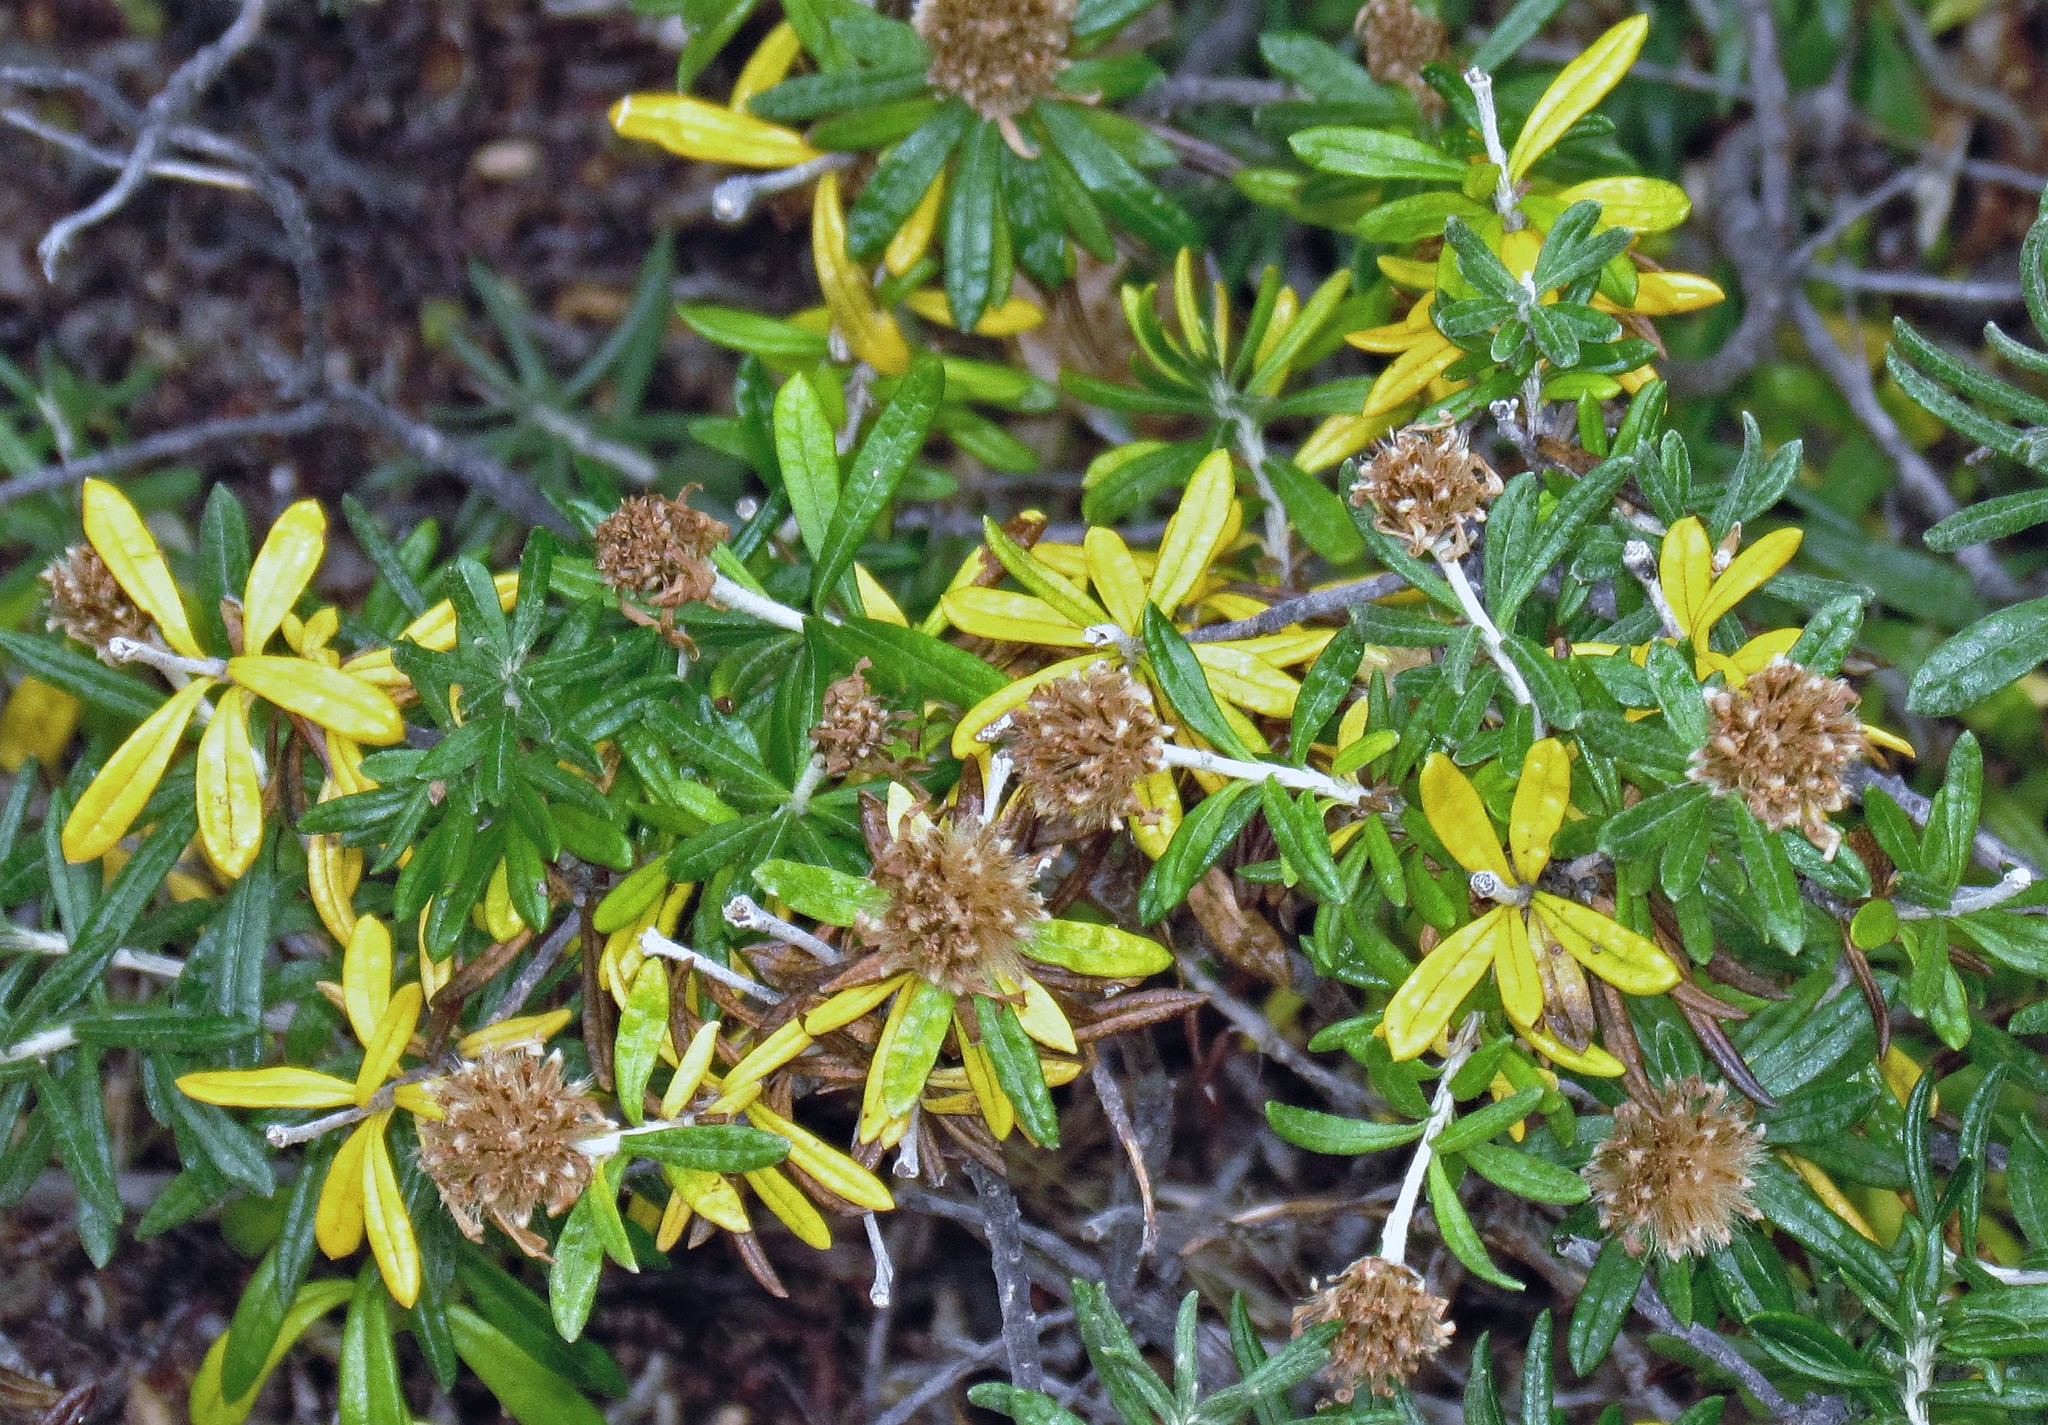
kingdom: Plantae
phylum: Tracheophyta
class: Magnoliopsida
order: Asterales
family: Asteraceae
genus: Chiliotrichum
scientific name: Chiliotrichum diffusum
